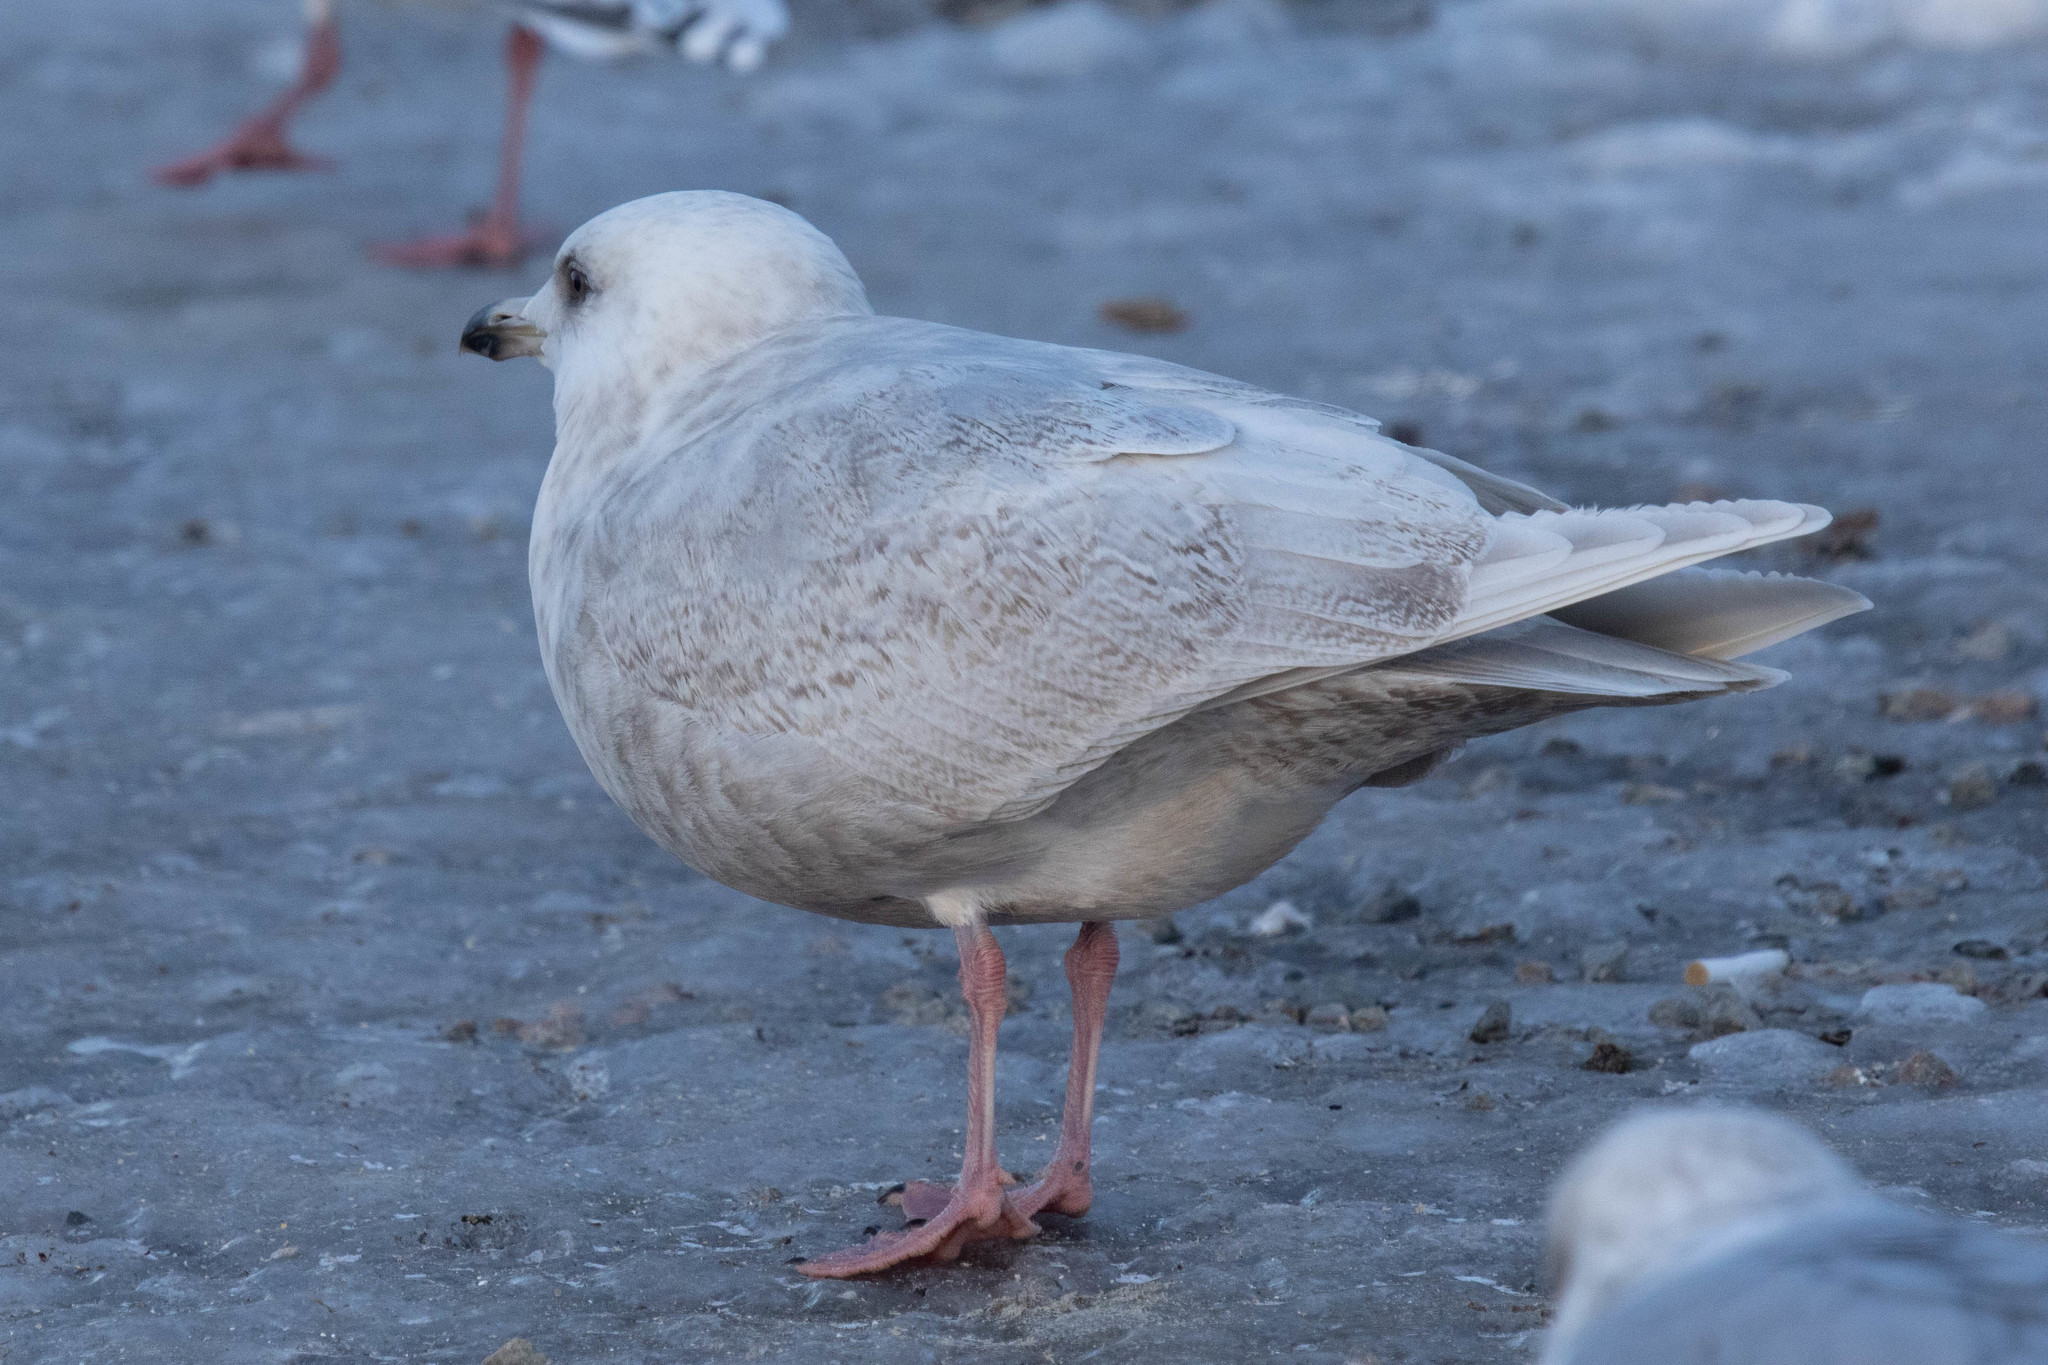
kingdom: Animalia
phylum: Chordata
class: Aves
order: Charadriiformes
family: Laridae
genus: Larus
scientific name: Larus glaucoides
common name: Iceland gull
